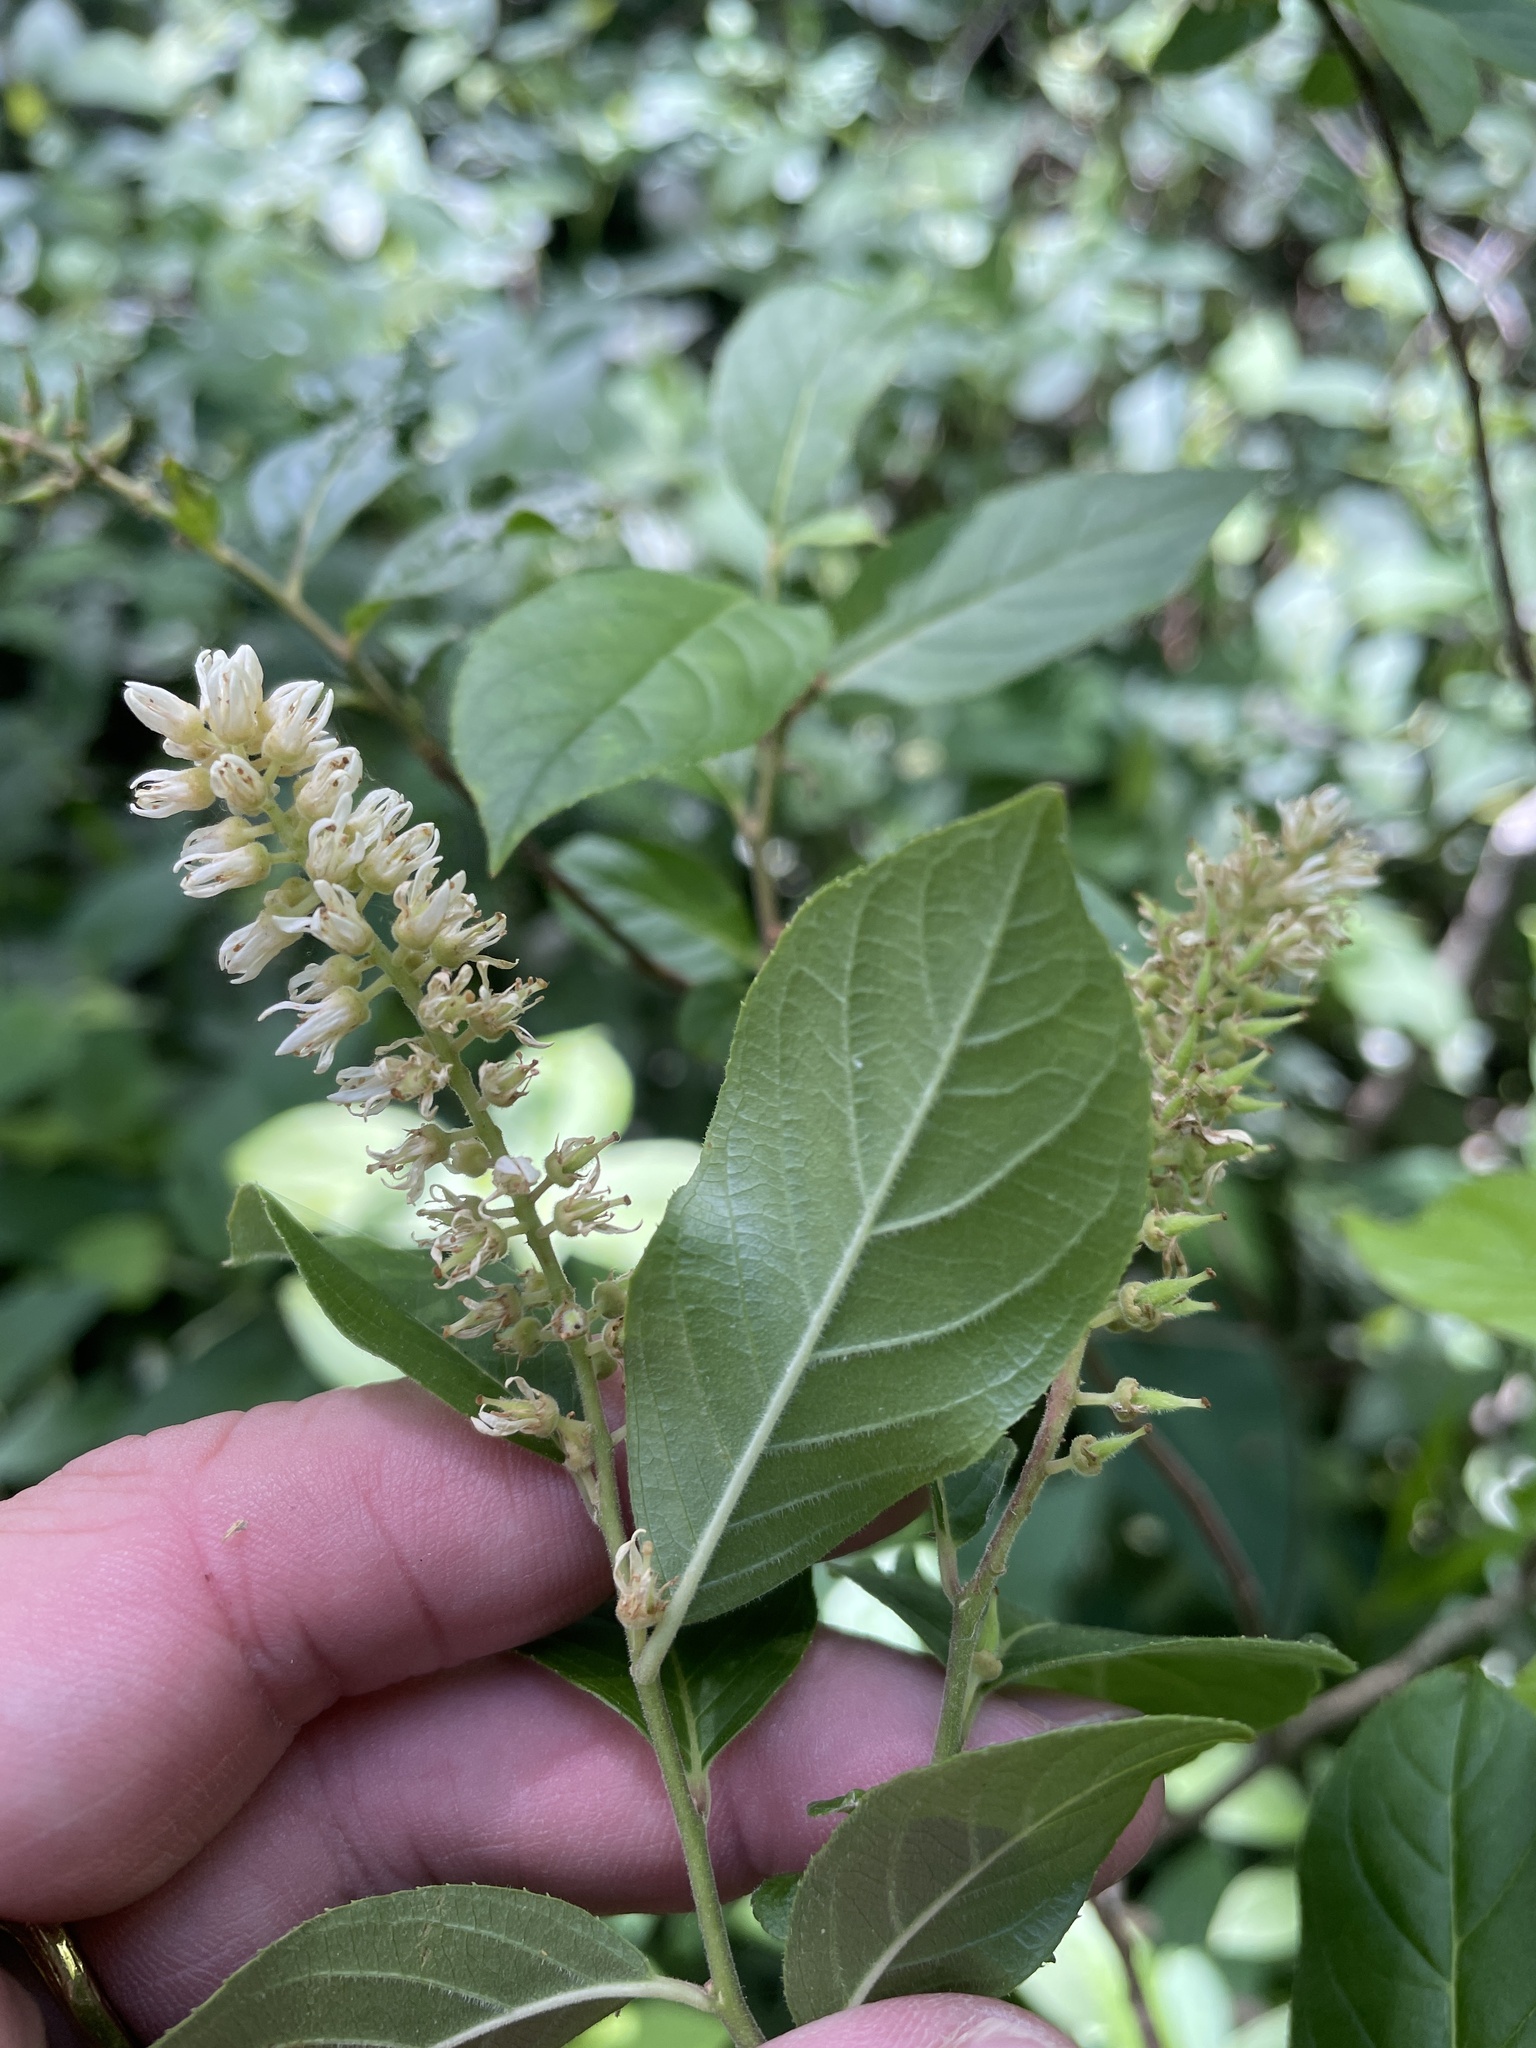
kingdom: Plantae
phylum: Tracheophyta
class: Magnoliopsida
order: Saxifragales
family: Iteaceae
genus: Itea
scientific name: Itea virginica
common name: Sweetspire
